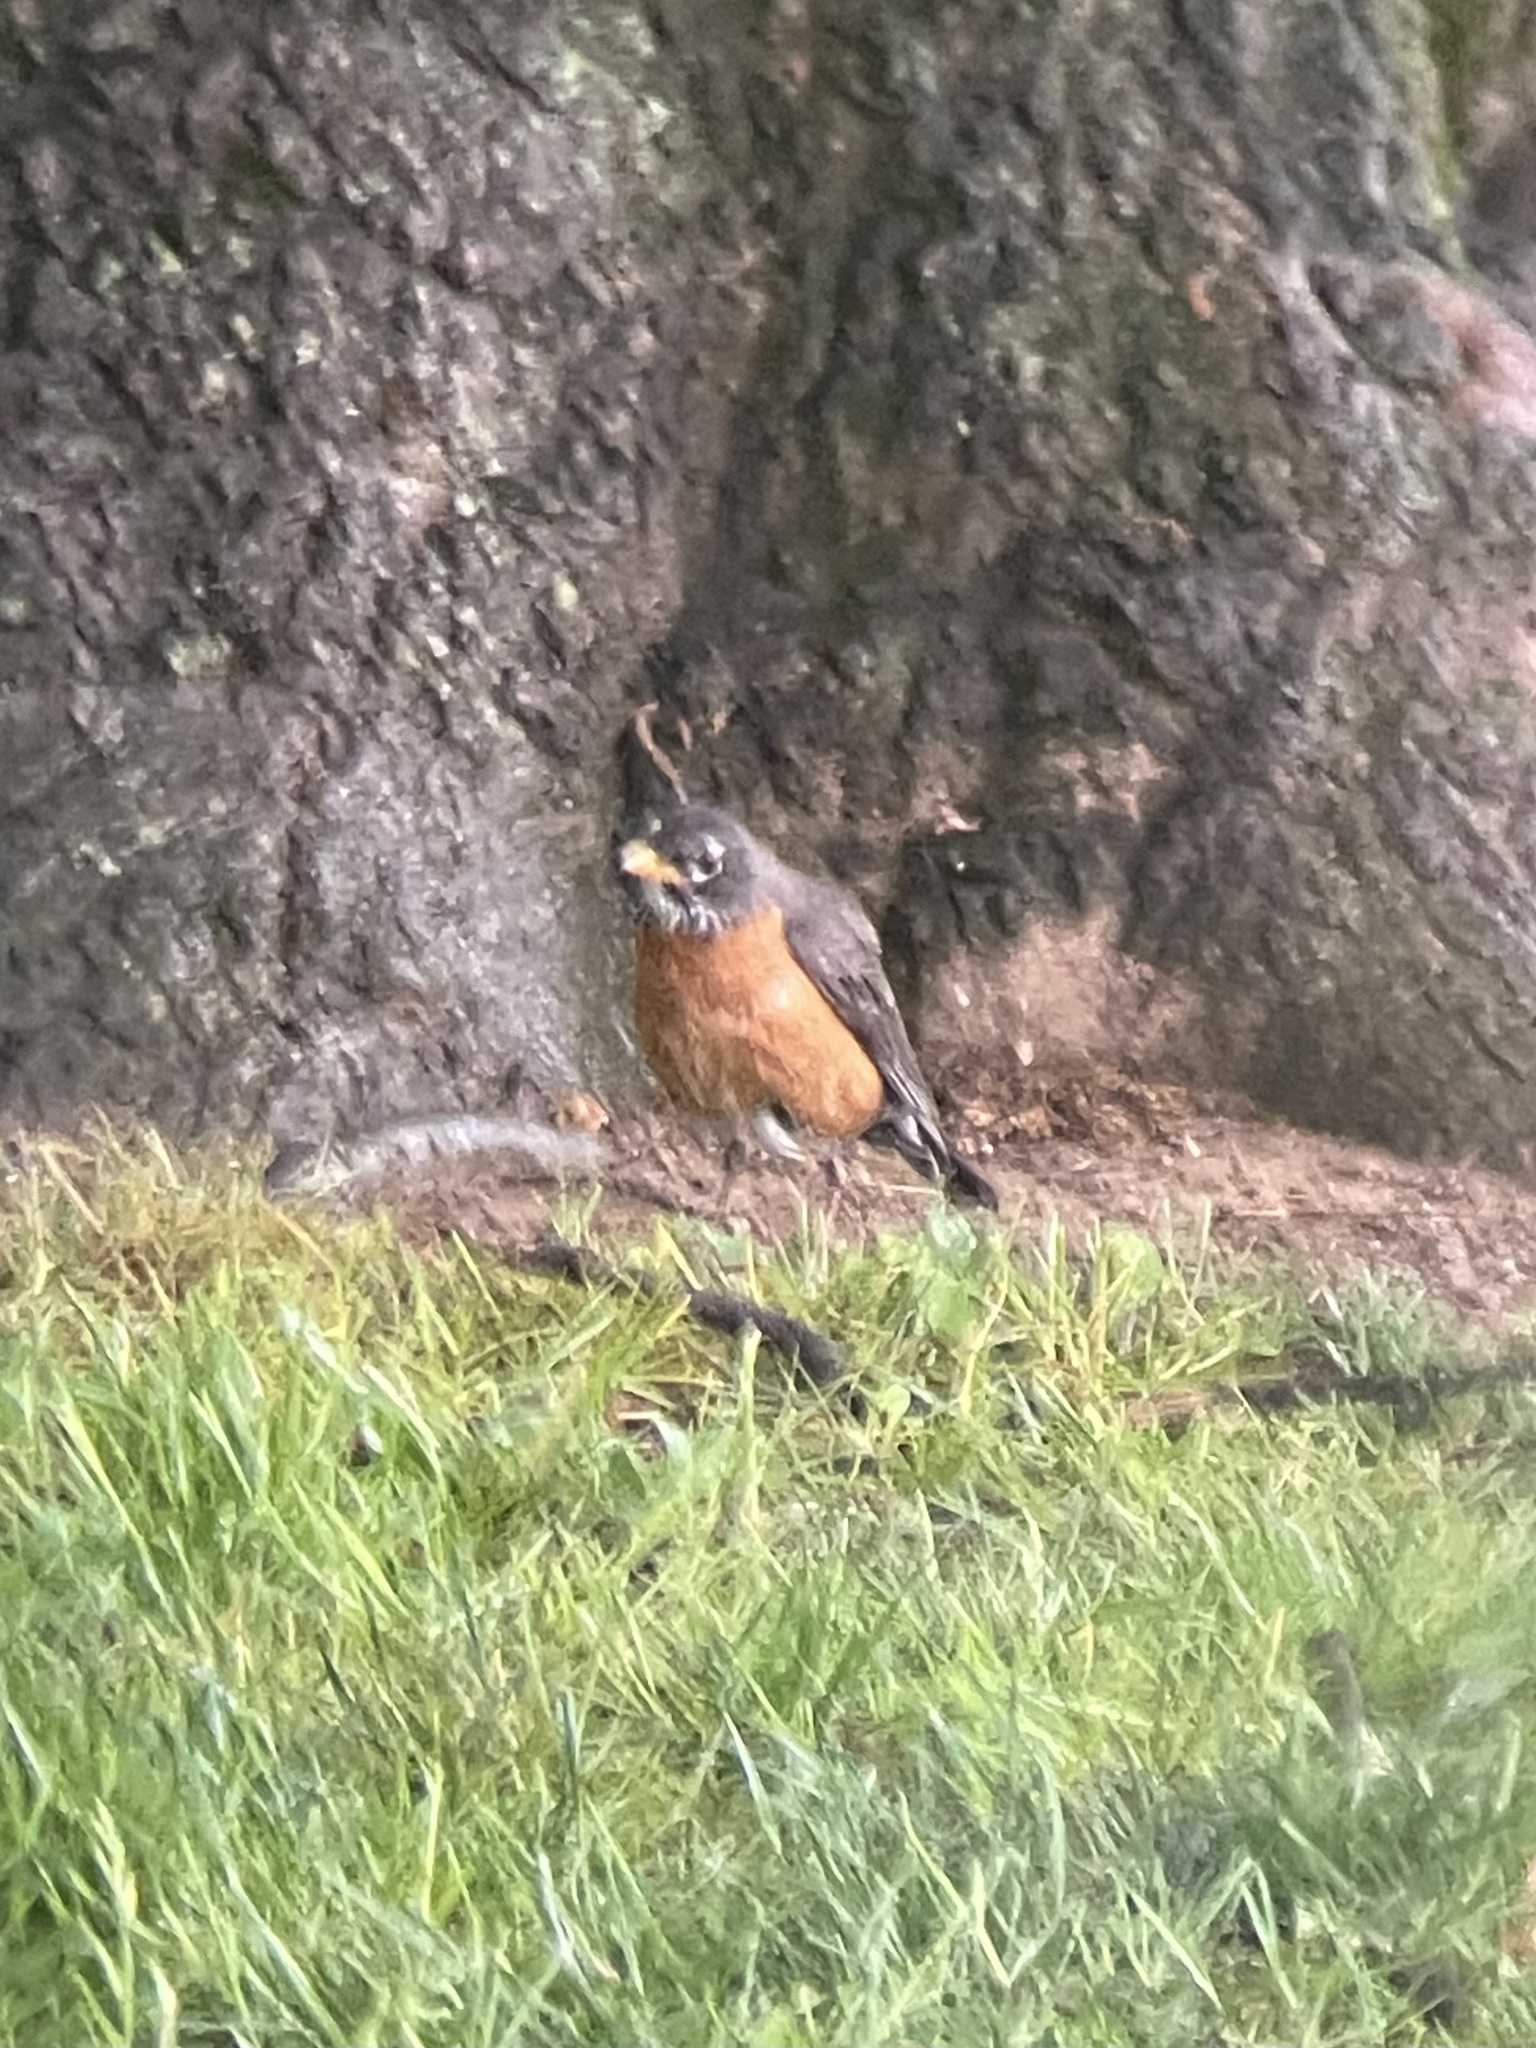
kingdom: Animalia
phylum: Chordata
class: Aves
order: Passeriformes
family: Turdidae
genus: Turdus
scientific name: Turdus migratorius
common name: American robin
